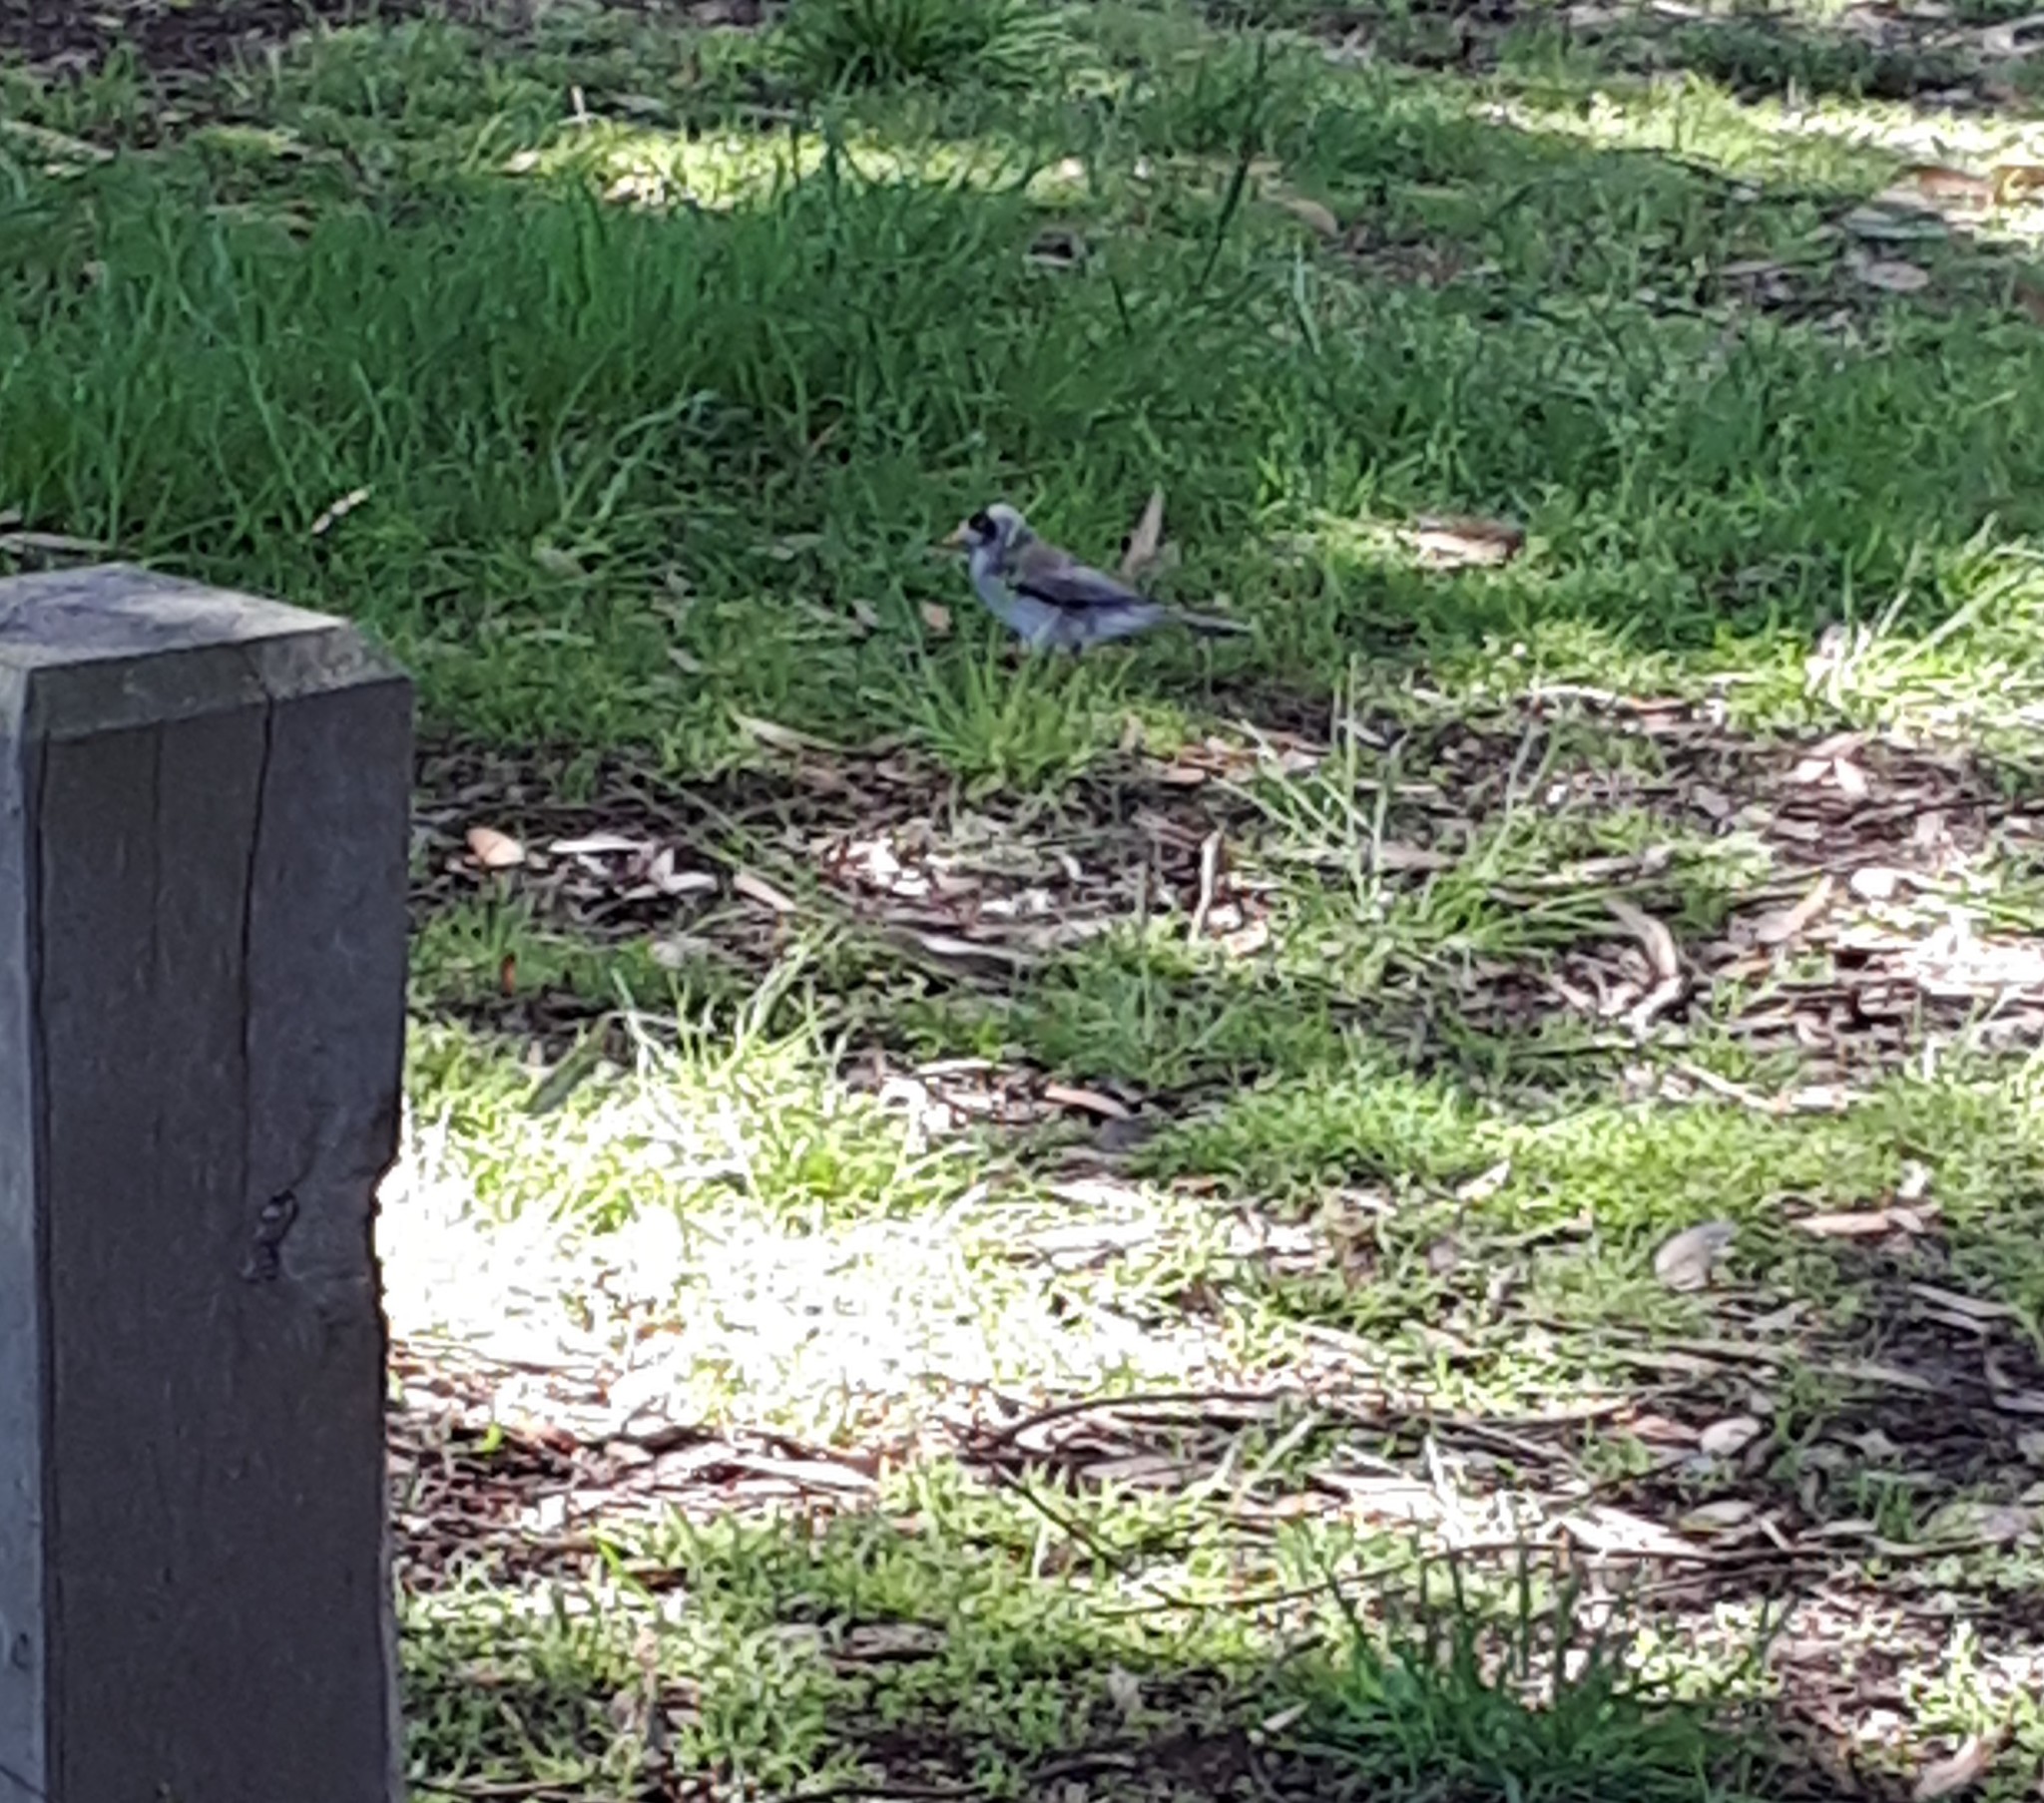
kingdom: Animalia
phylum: Chordata
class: Aves
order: Passeriformes
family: Meliphagidae
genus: Manorina
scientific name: Manorina melanocephala
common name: Noisy miner
